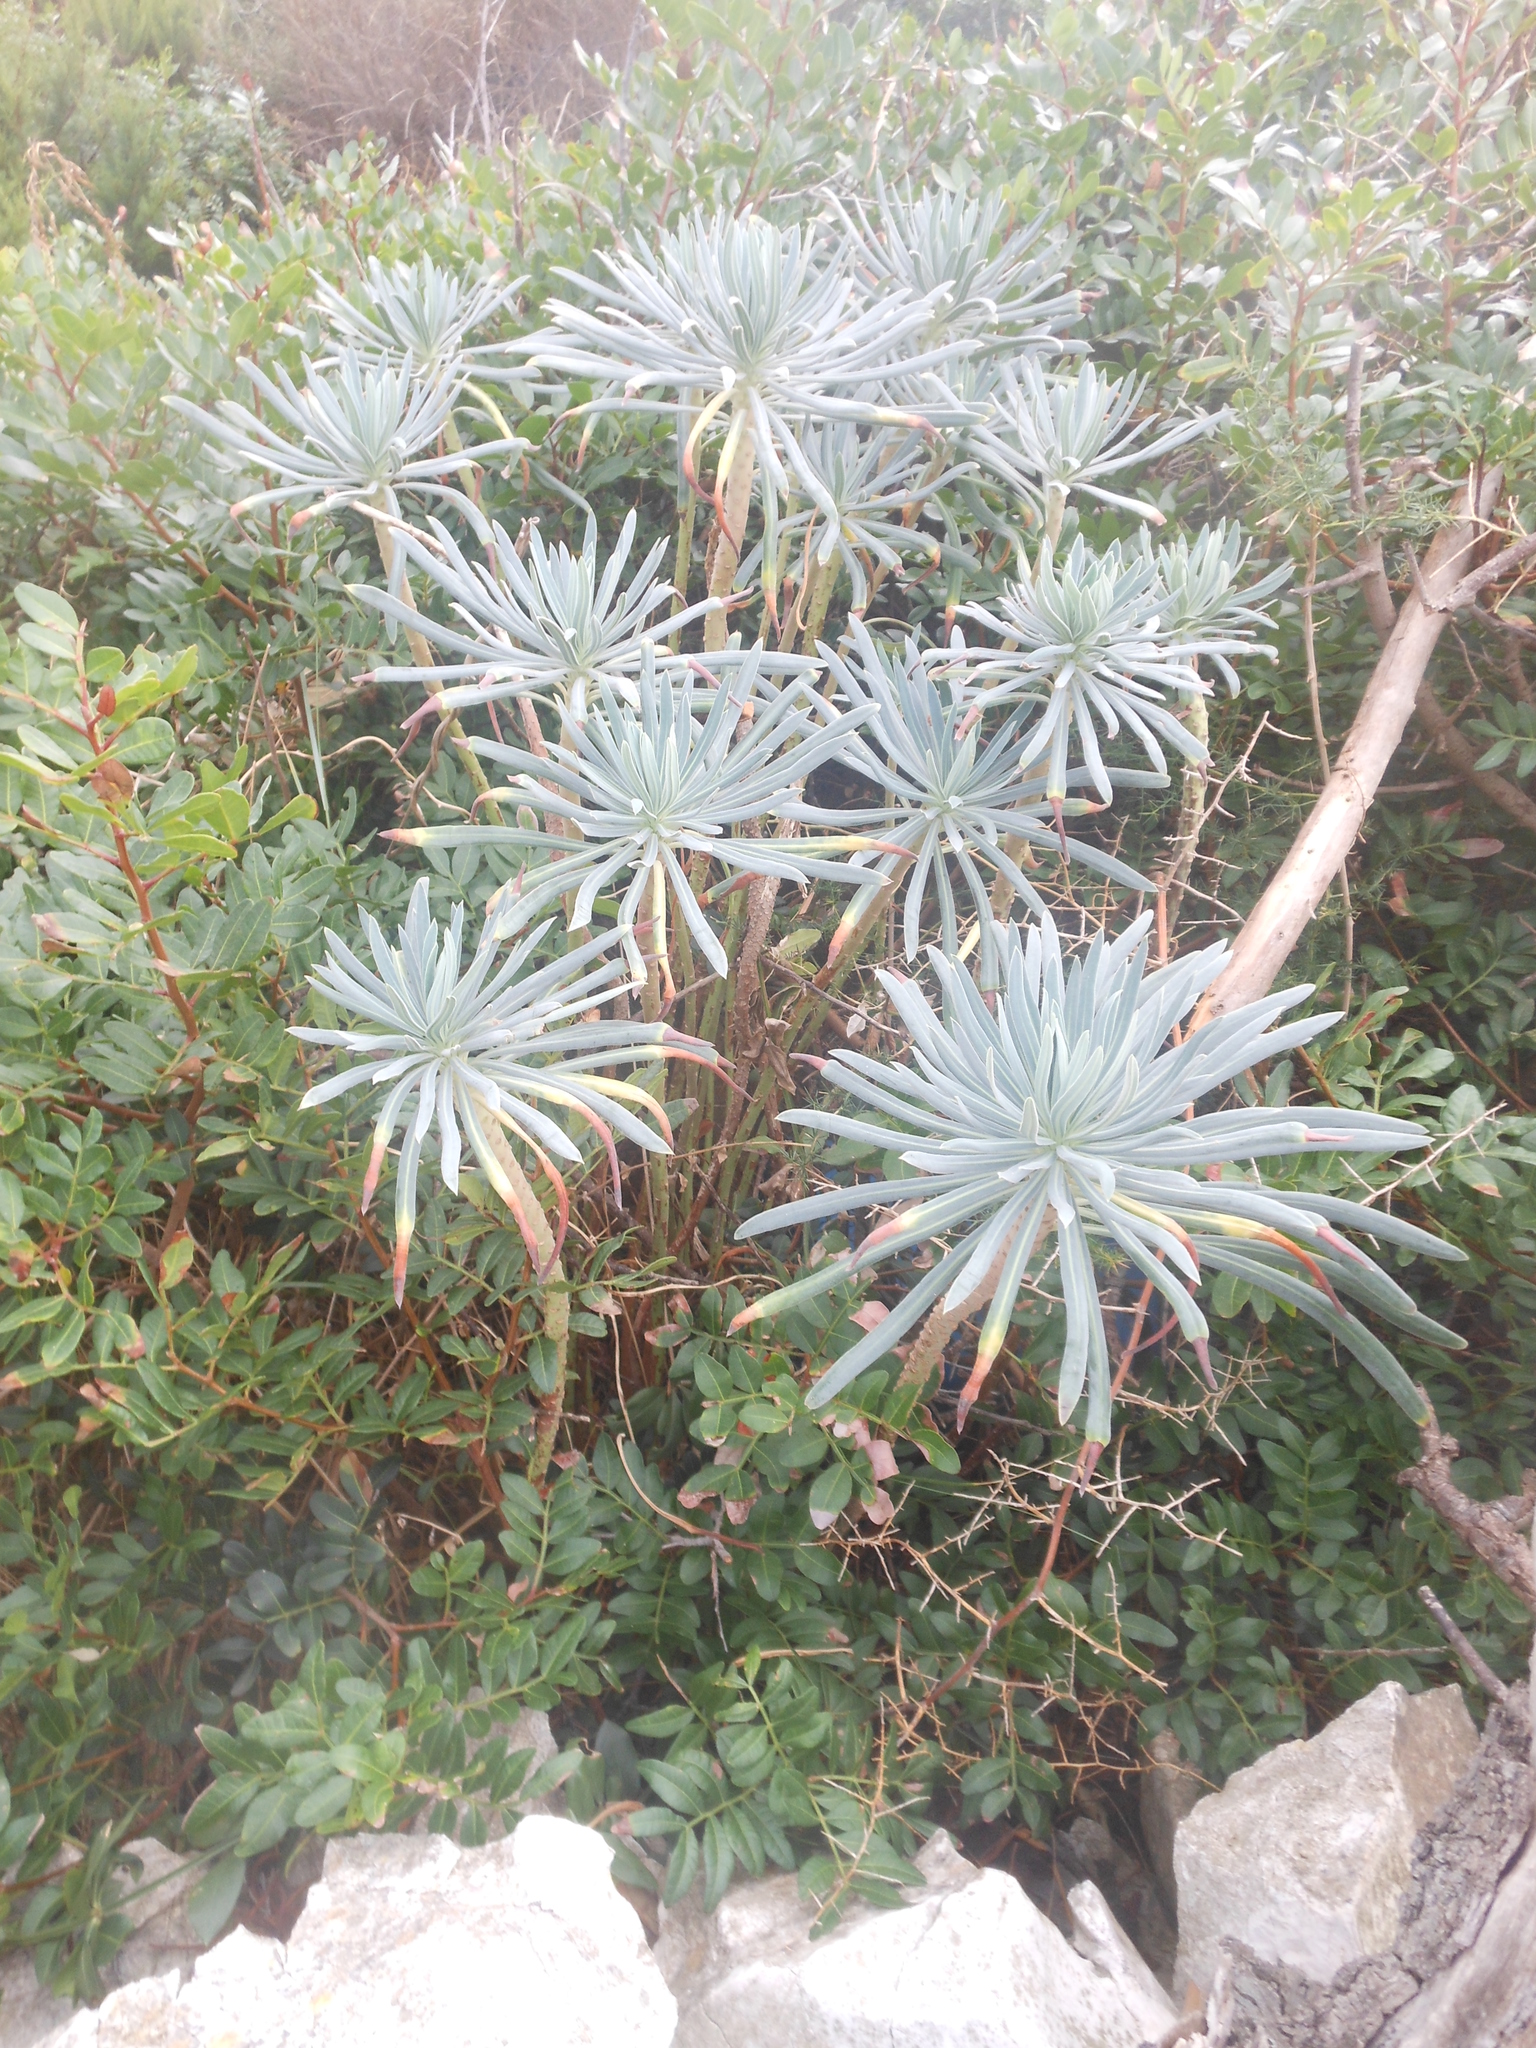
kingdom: Plantae
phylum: Tracheophyta
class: Magnoliopsida
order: Malpighiales
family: Euphorbiaceae
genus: Euphorbia
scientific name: Euphorbia characias
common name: Mediterranean spurge
